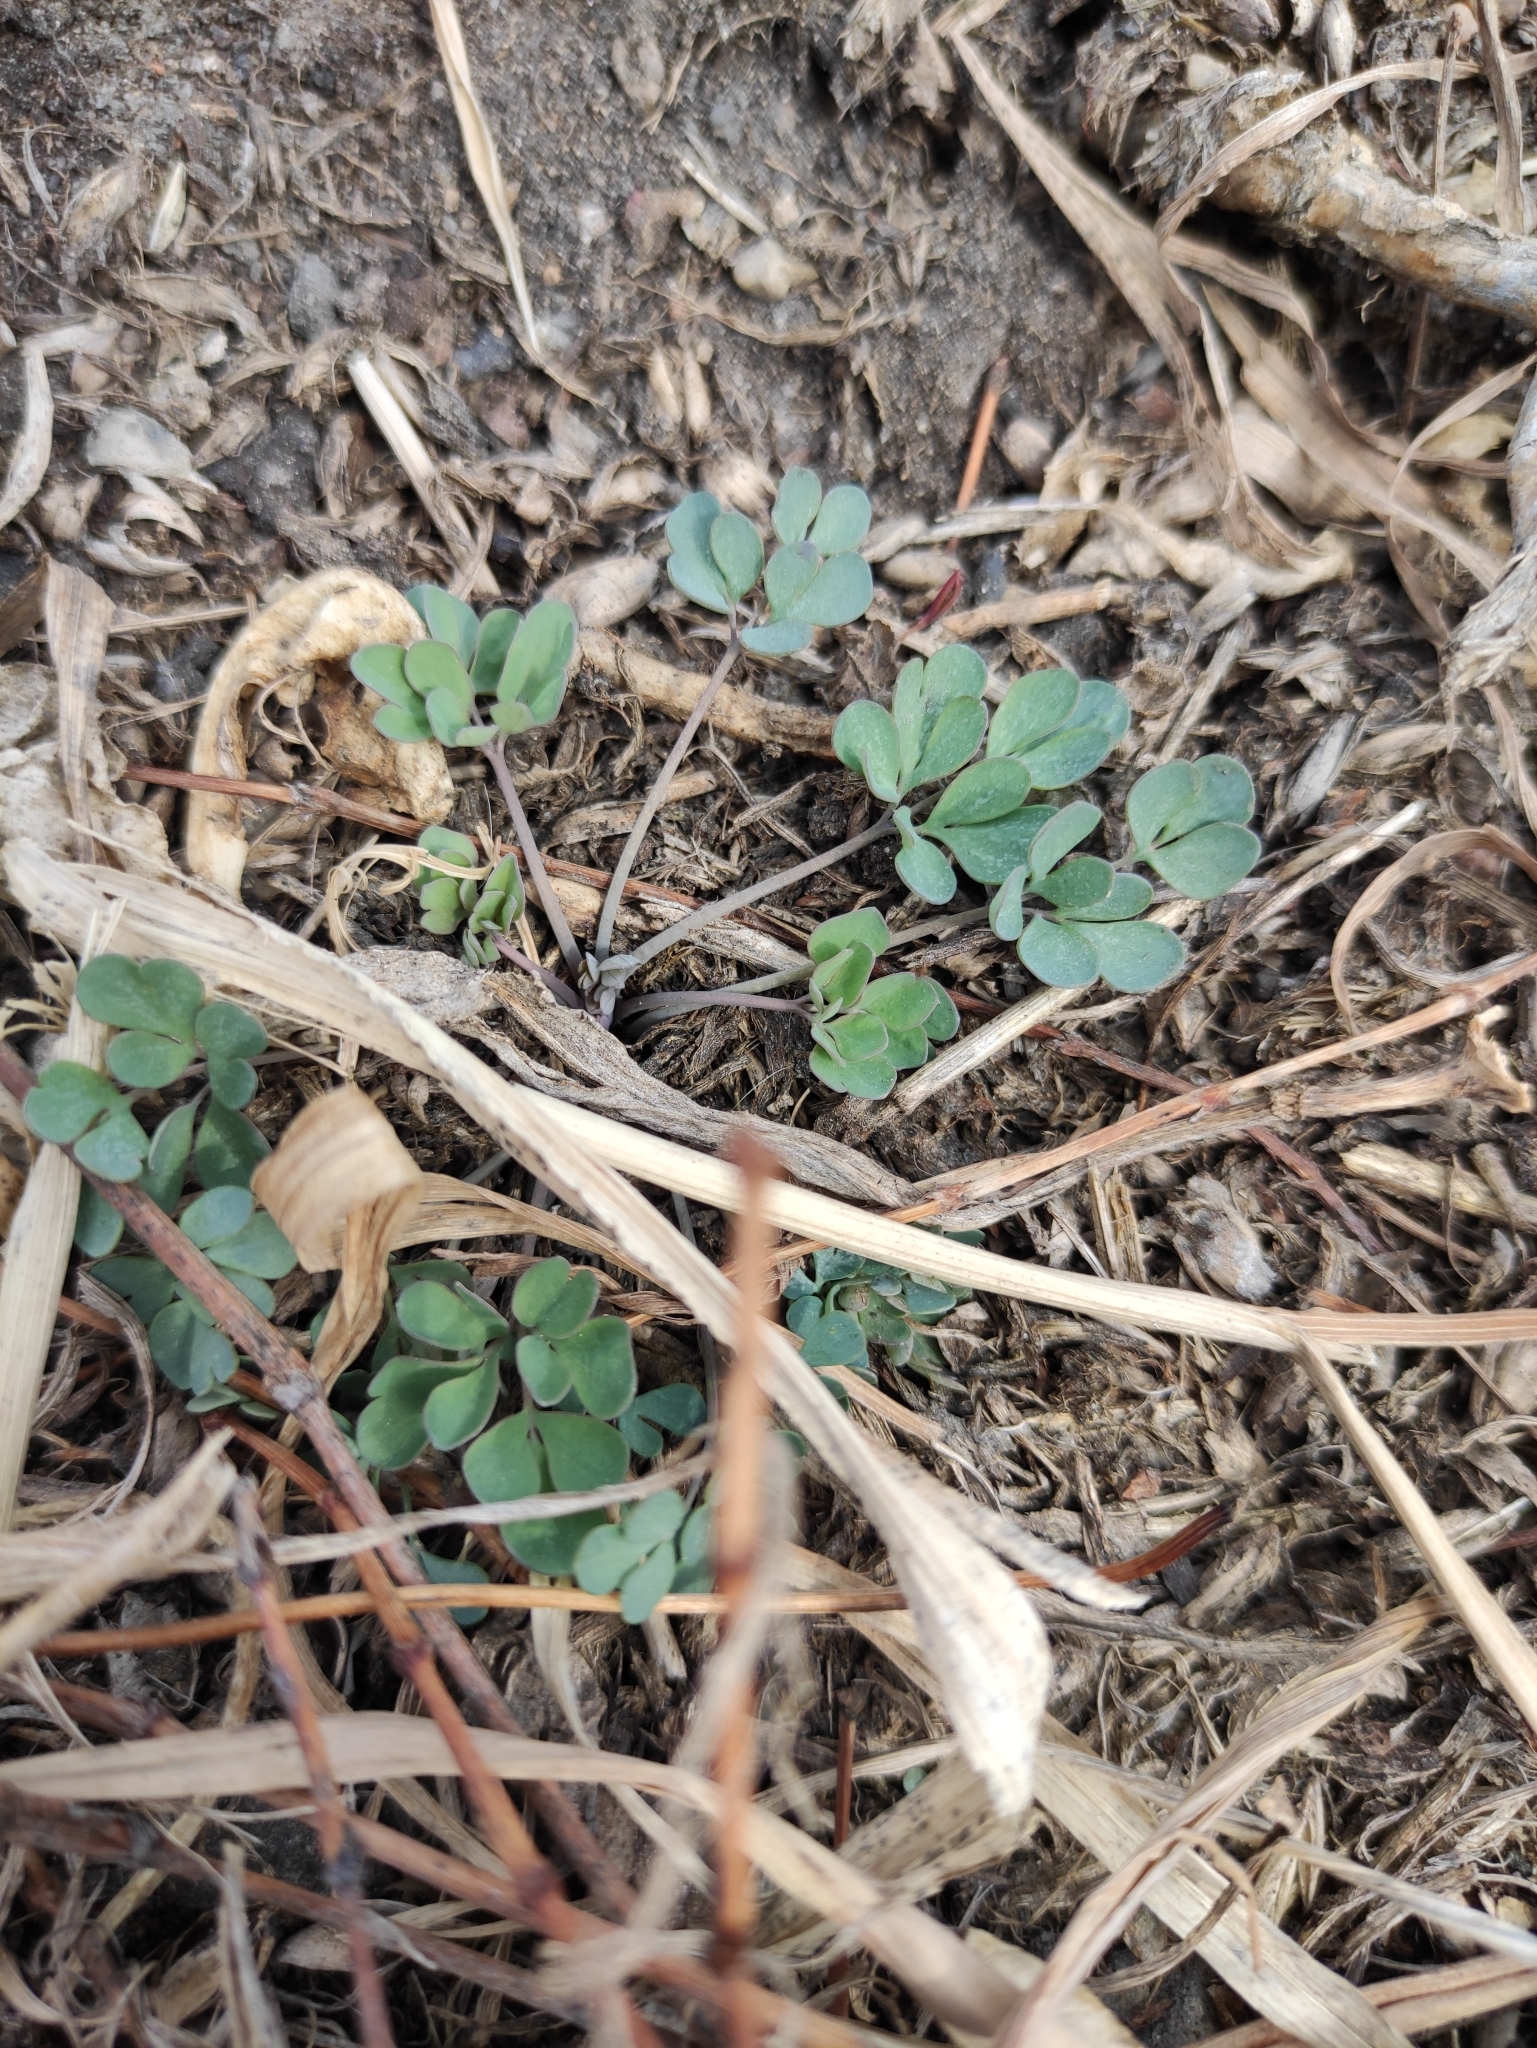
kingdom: Plantae
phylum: Tracheophyta
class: Magnoliopsida
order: Ranunculales
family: Ranunculaceae
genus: Leptopyrum
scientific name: Leptopyrum fumarioides
